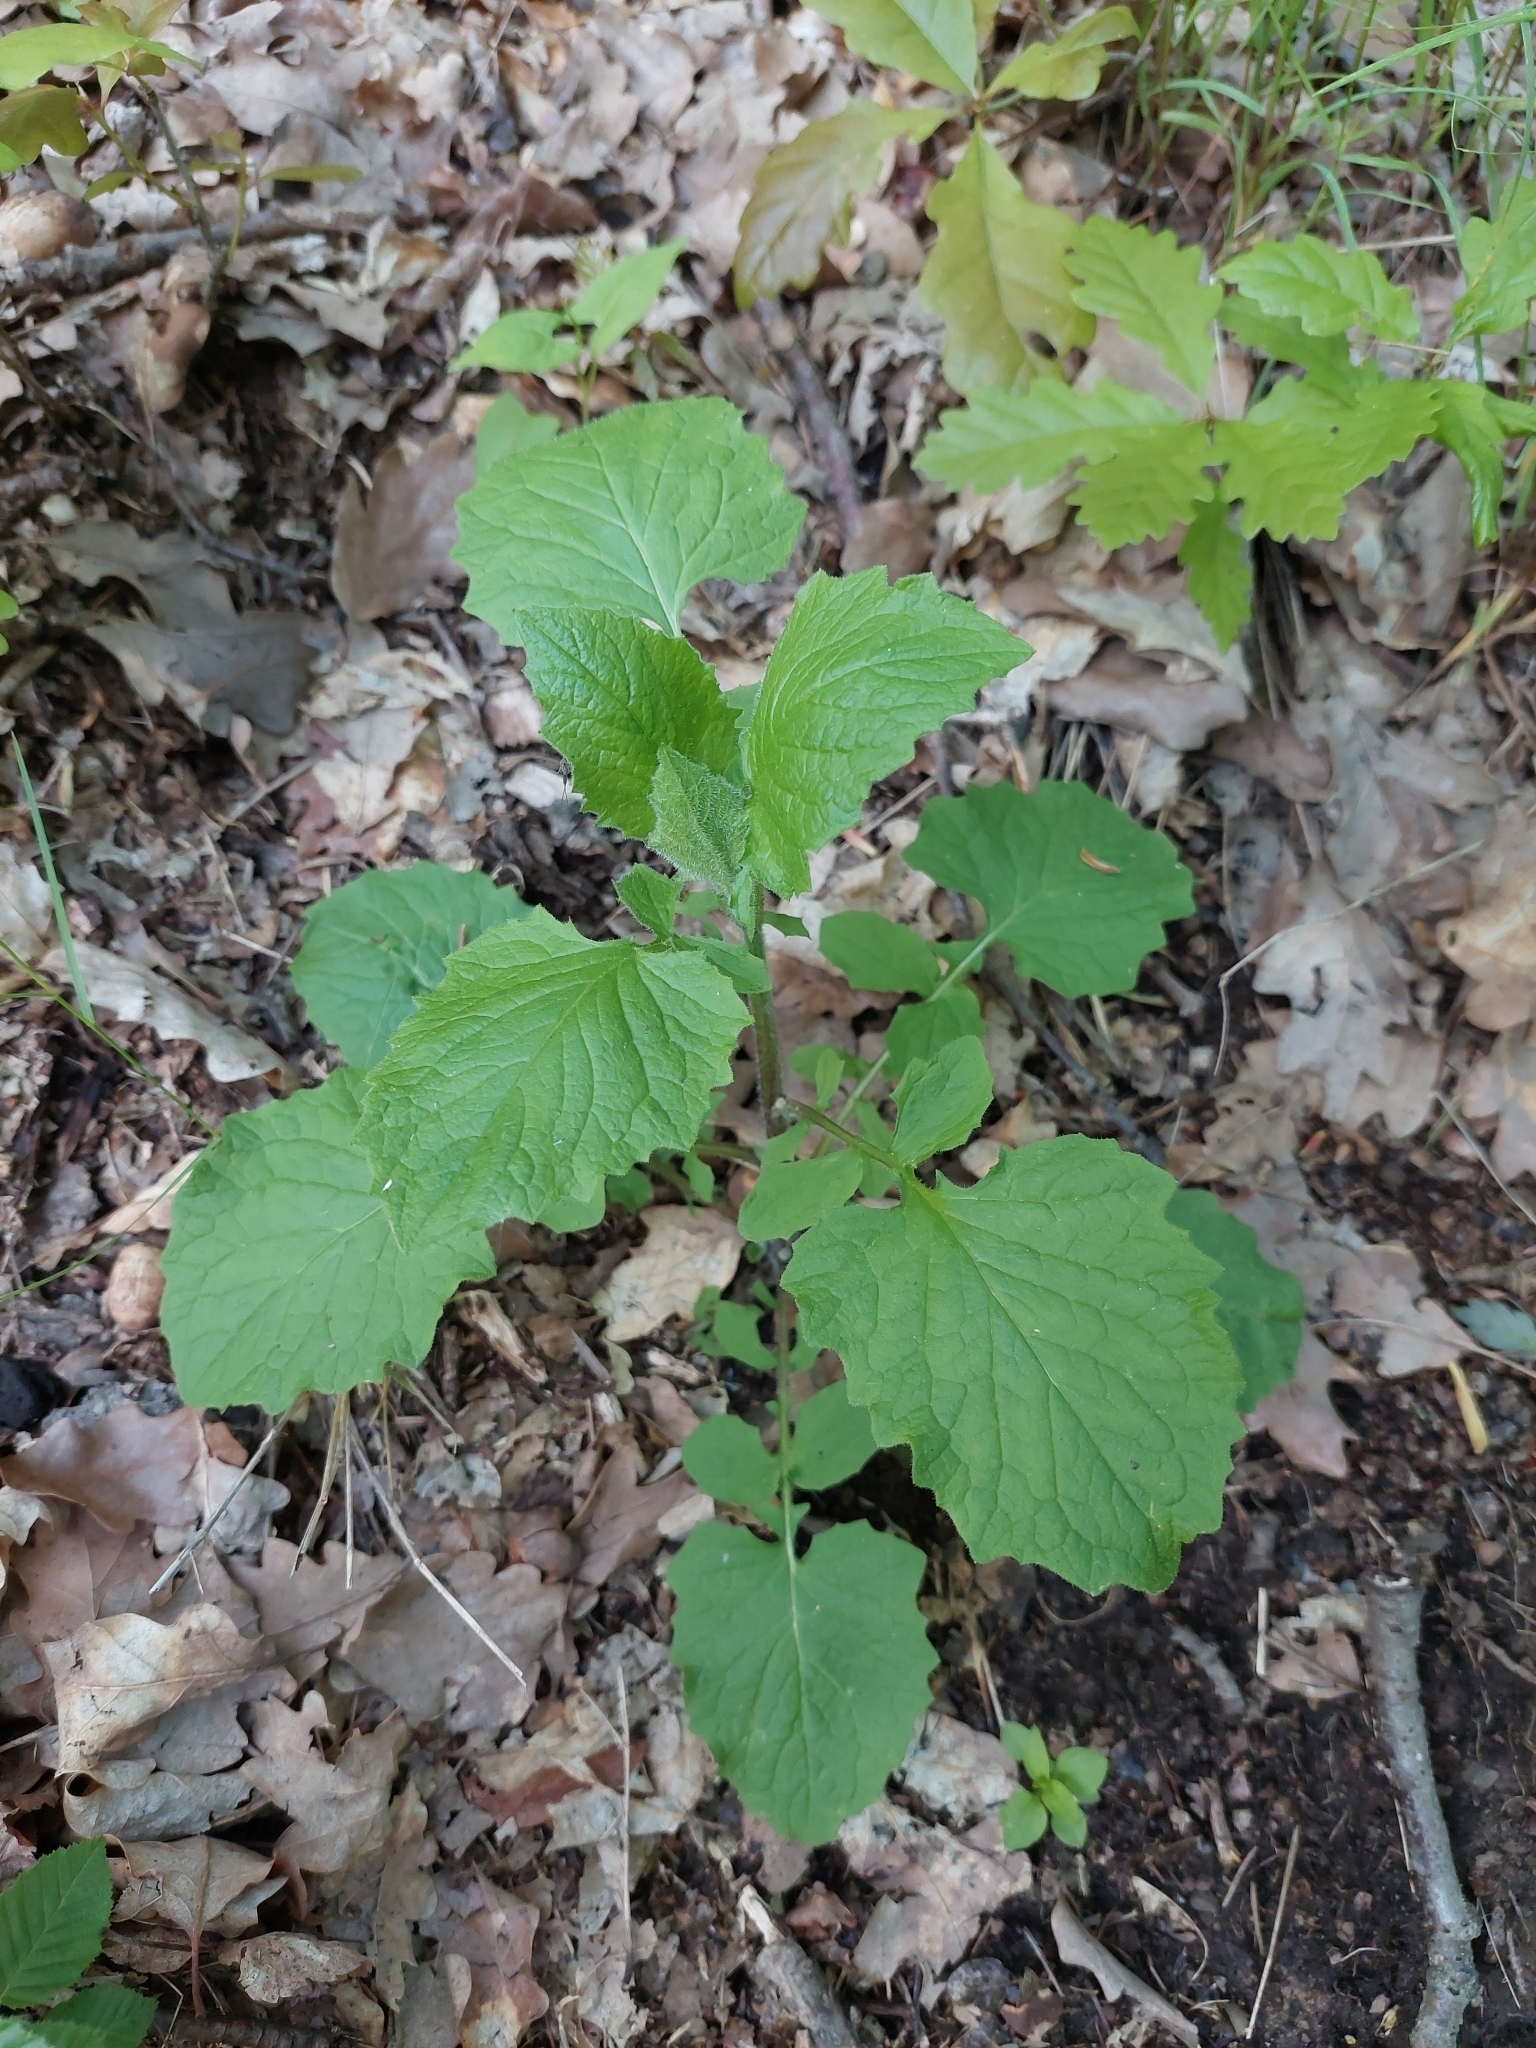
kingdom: Plantae
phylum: Tracheophyta
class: Magnoliopsida
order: Asterales
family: Asteraceae
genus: Lapsana
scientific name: Lapsana communis
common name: Nipplewort
